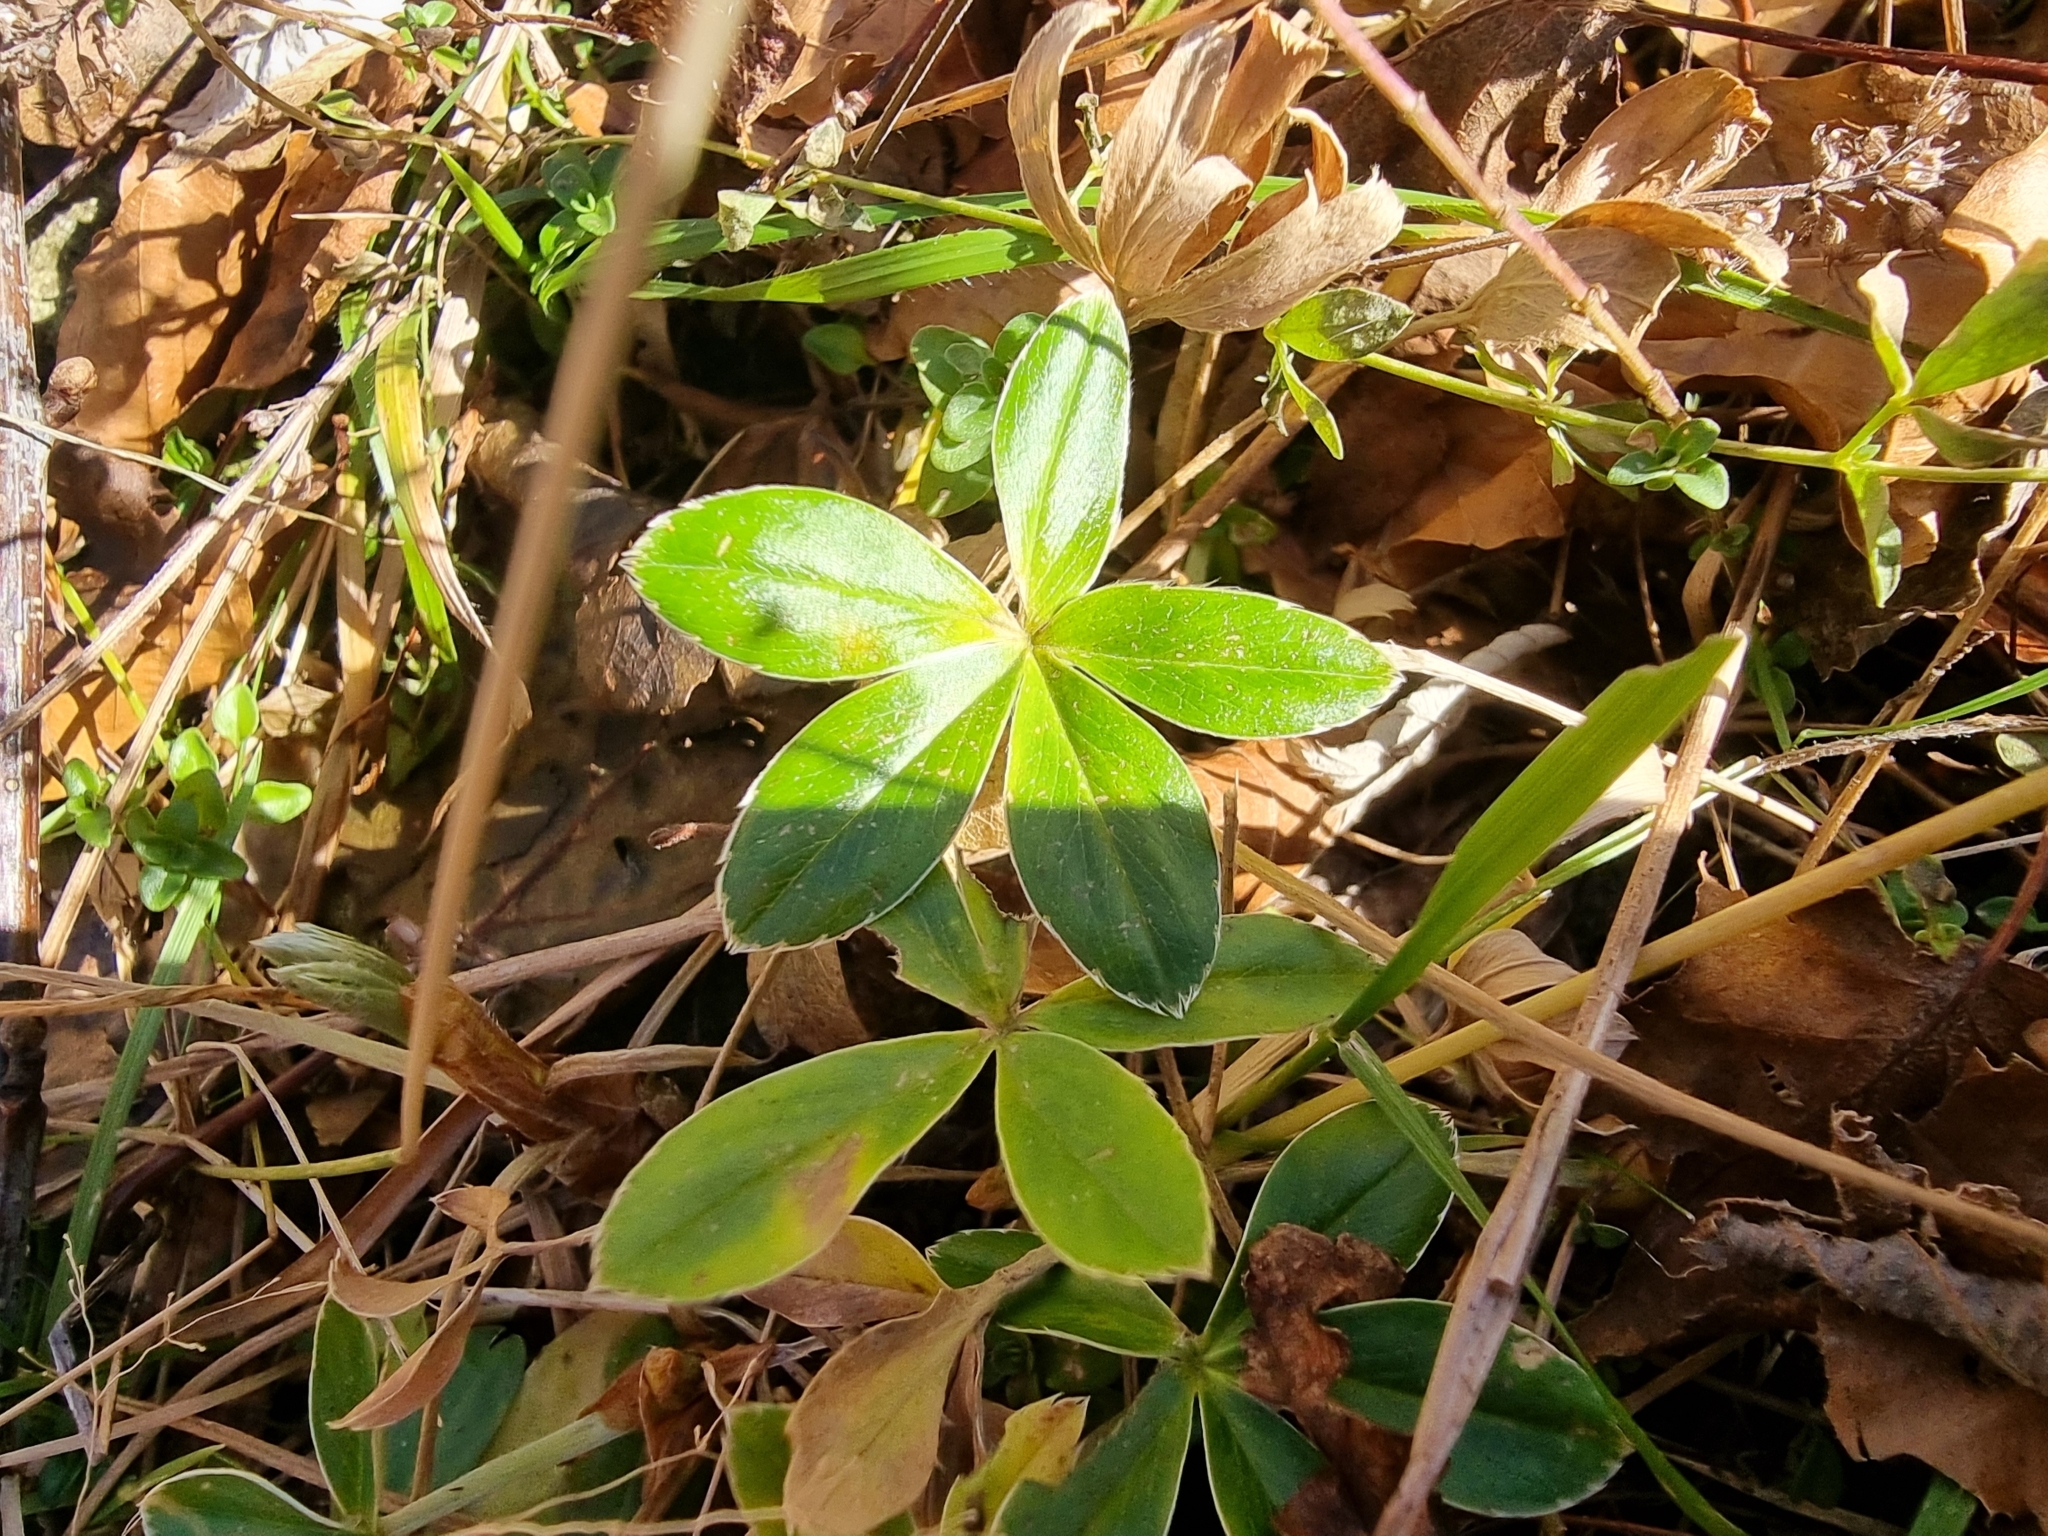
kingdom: Plantae
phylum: Tracheophyta
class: Magnoliopsida
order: Rosales
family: Rosaceae
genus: Potentilla
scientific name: Potentilla alba
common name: White cinquefoil
